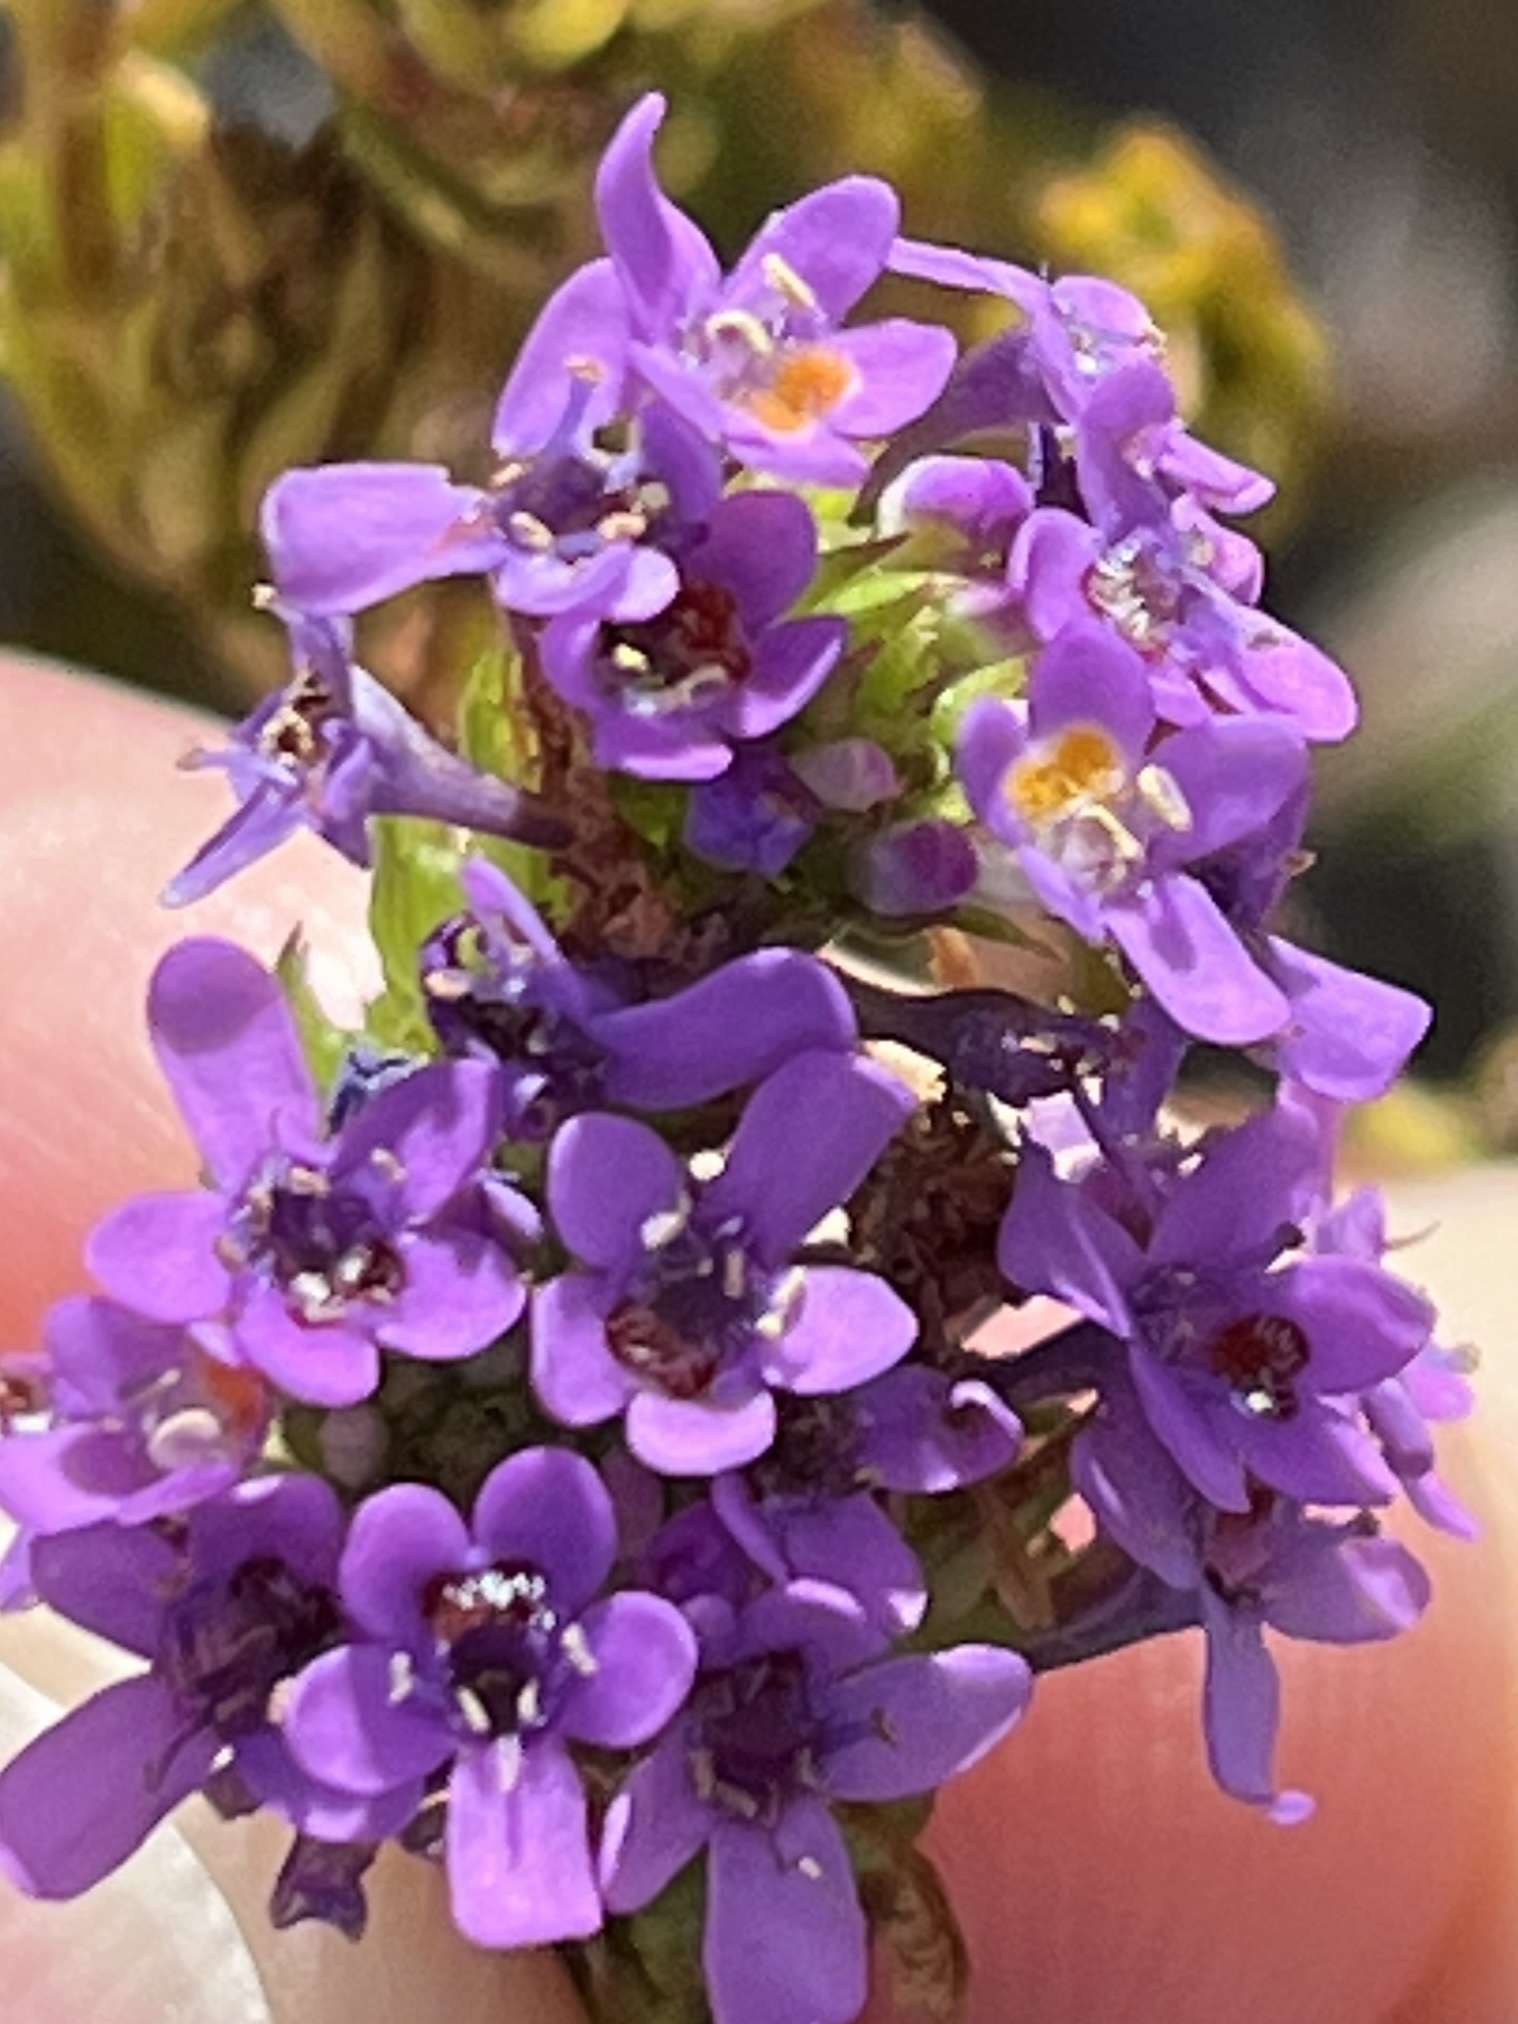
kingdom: Plantae
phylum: Tracheophyta
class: Magnoliopsida
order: Lamiales
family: Scrophulariaceae
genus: Pseudoselago
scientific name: Pseudoselago verbenacea
